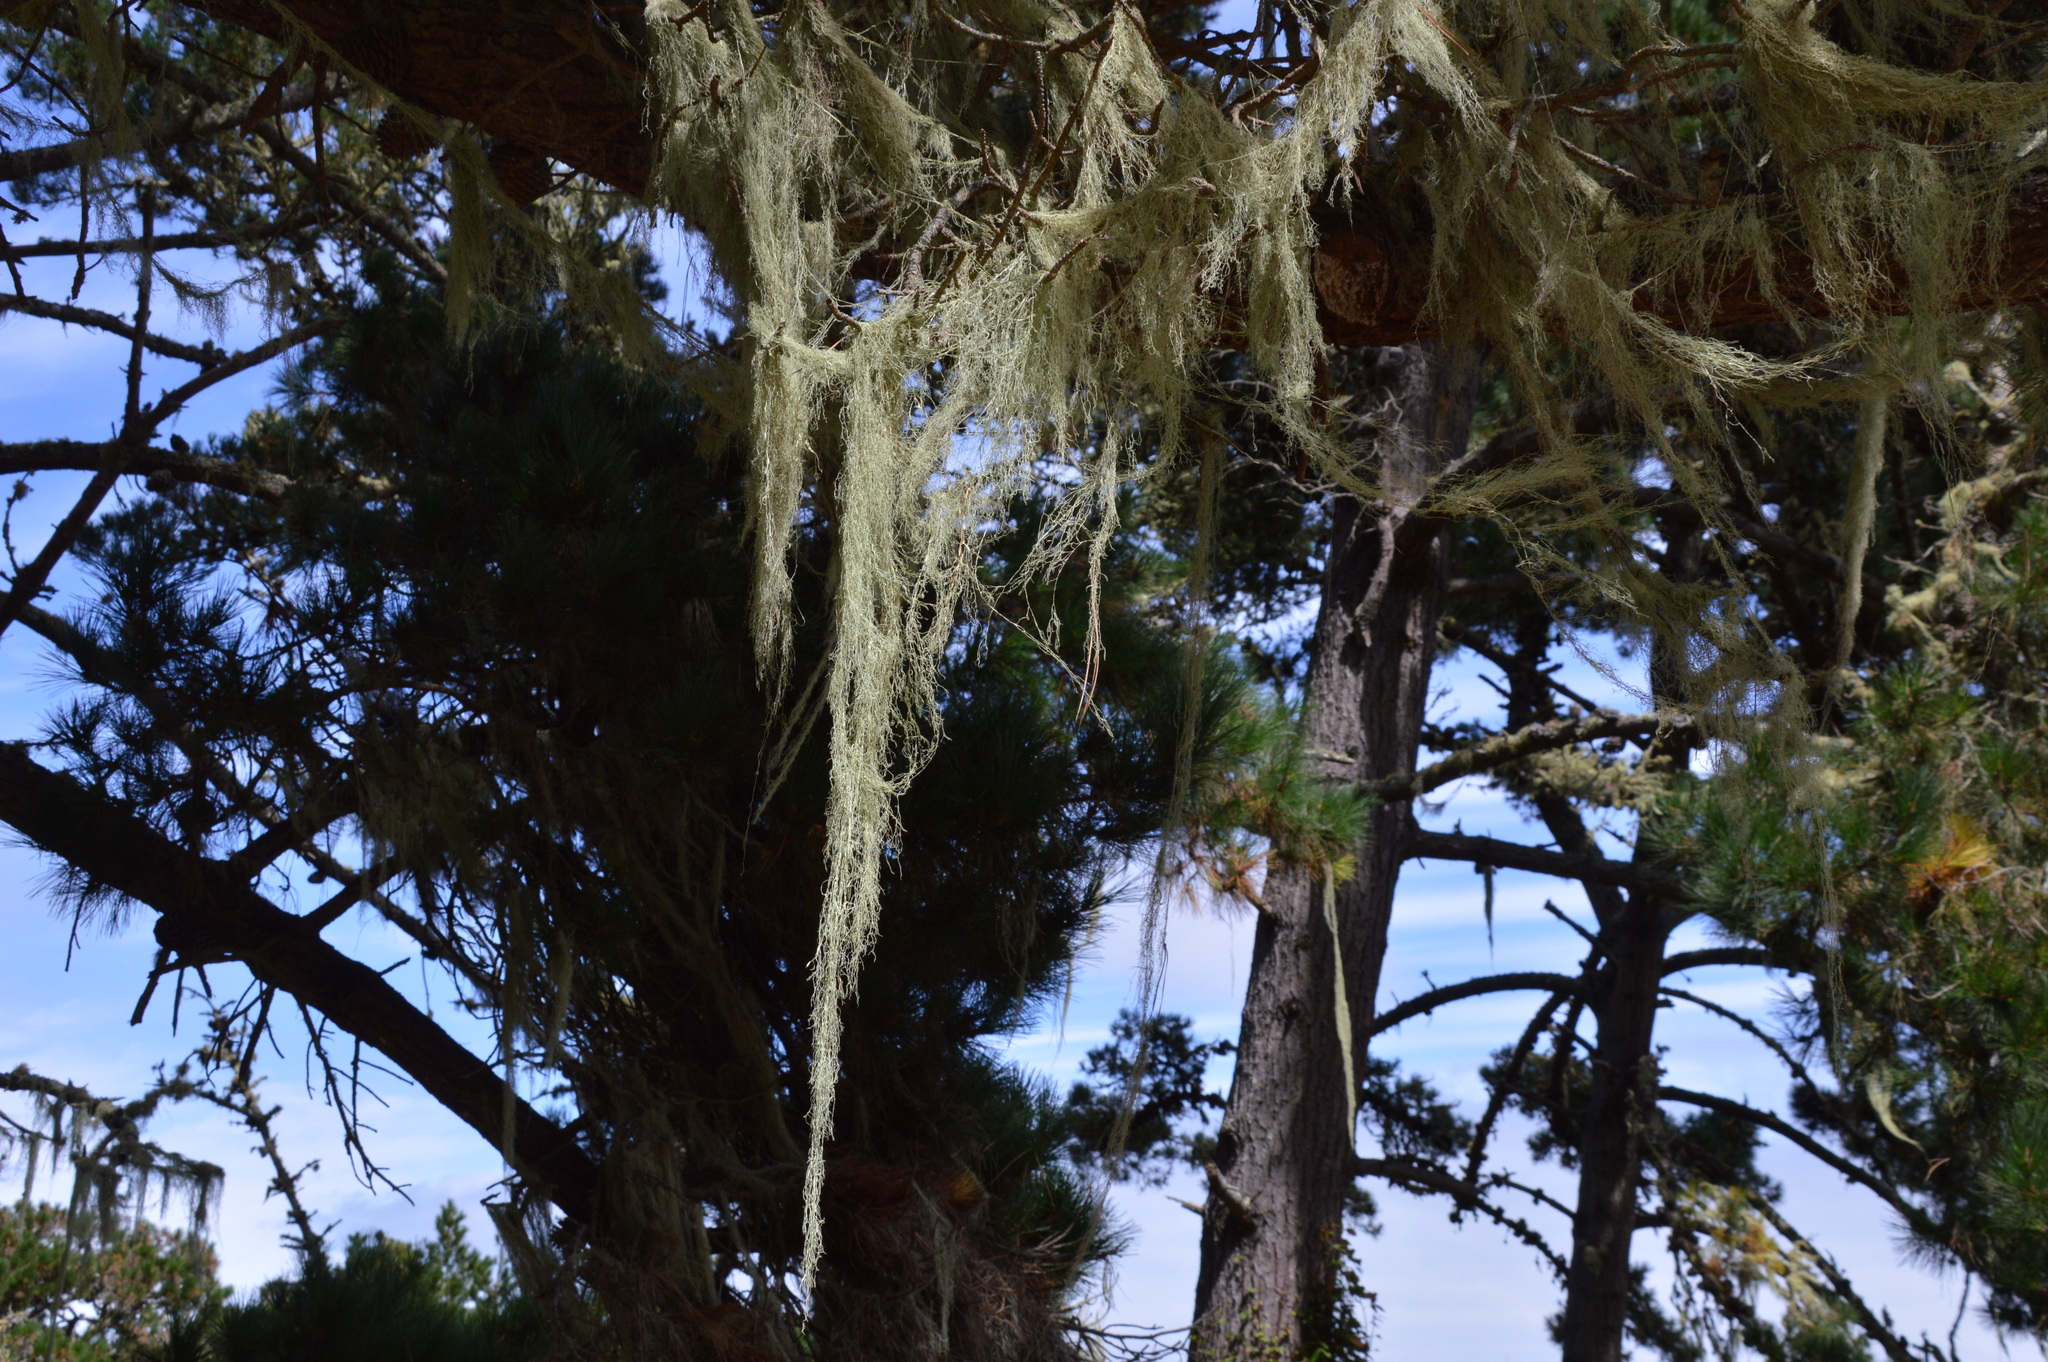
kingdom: Fungi
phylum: Ascomycota
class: Lecanoromycetes
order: Lecanorales
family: Ramalinaceae
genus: Ramalina
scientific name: Ramalina menziesii
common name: Lace lichen
